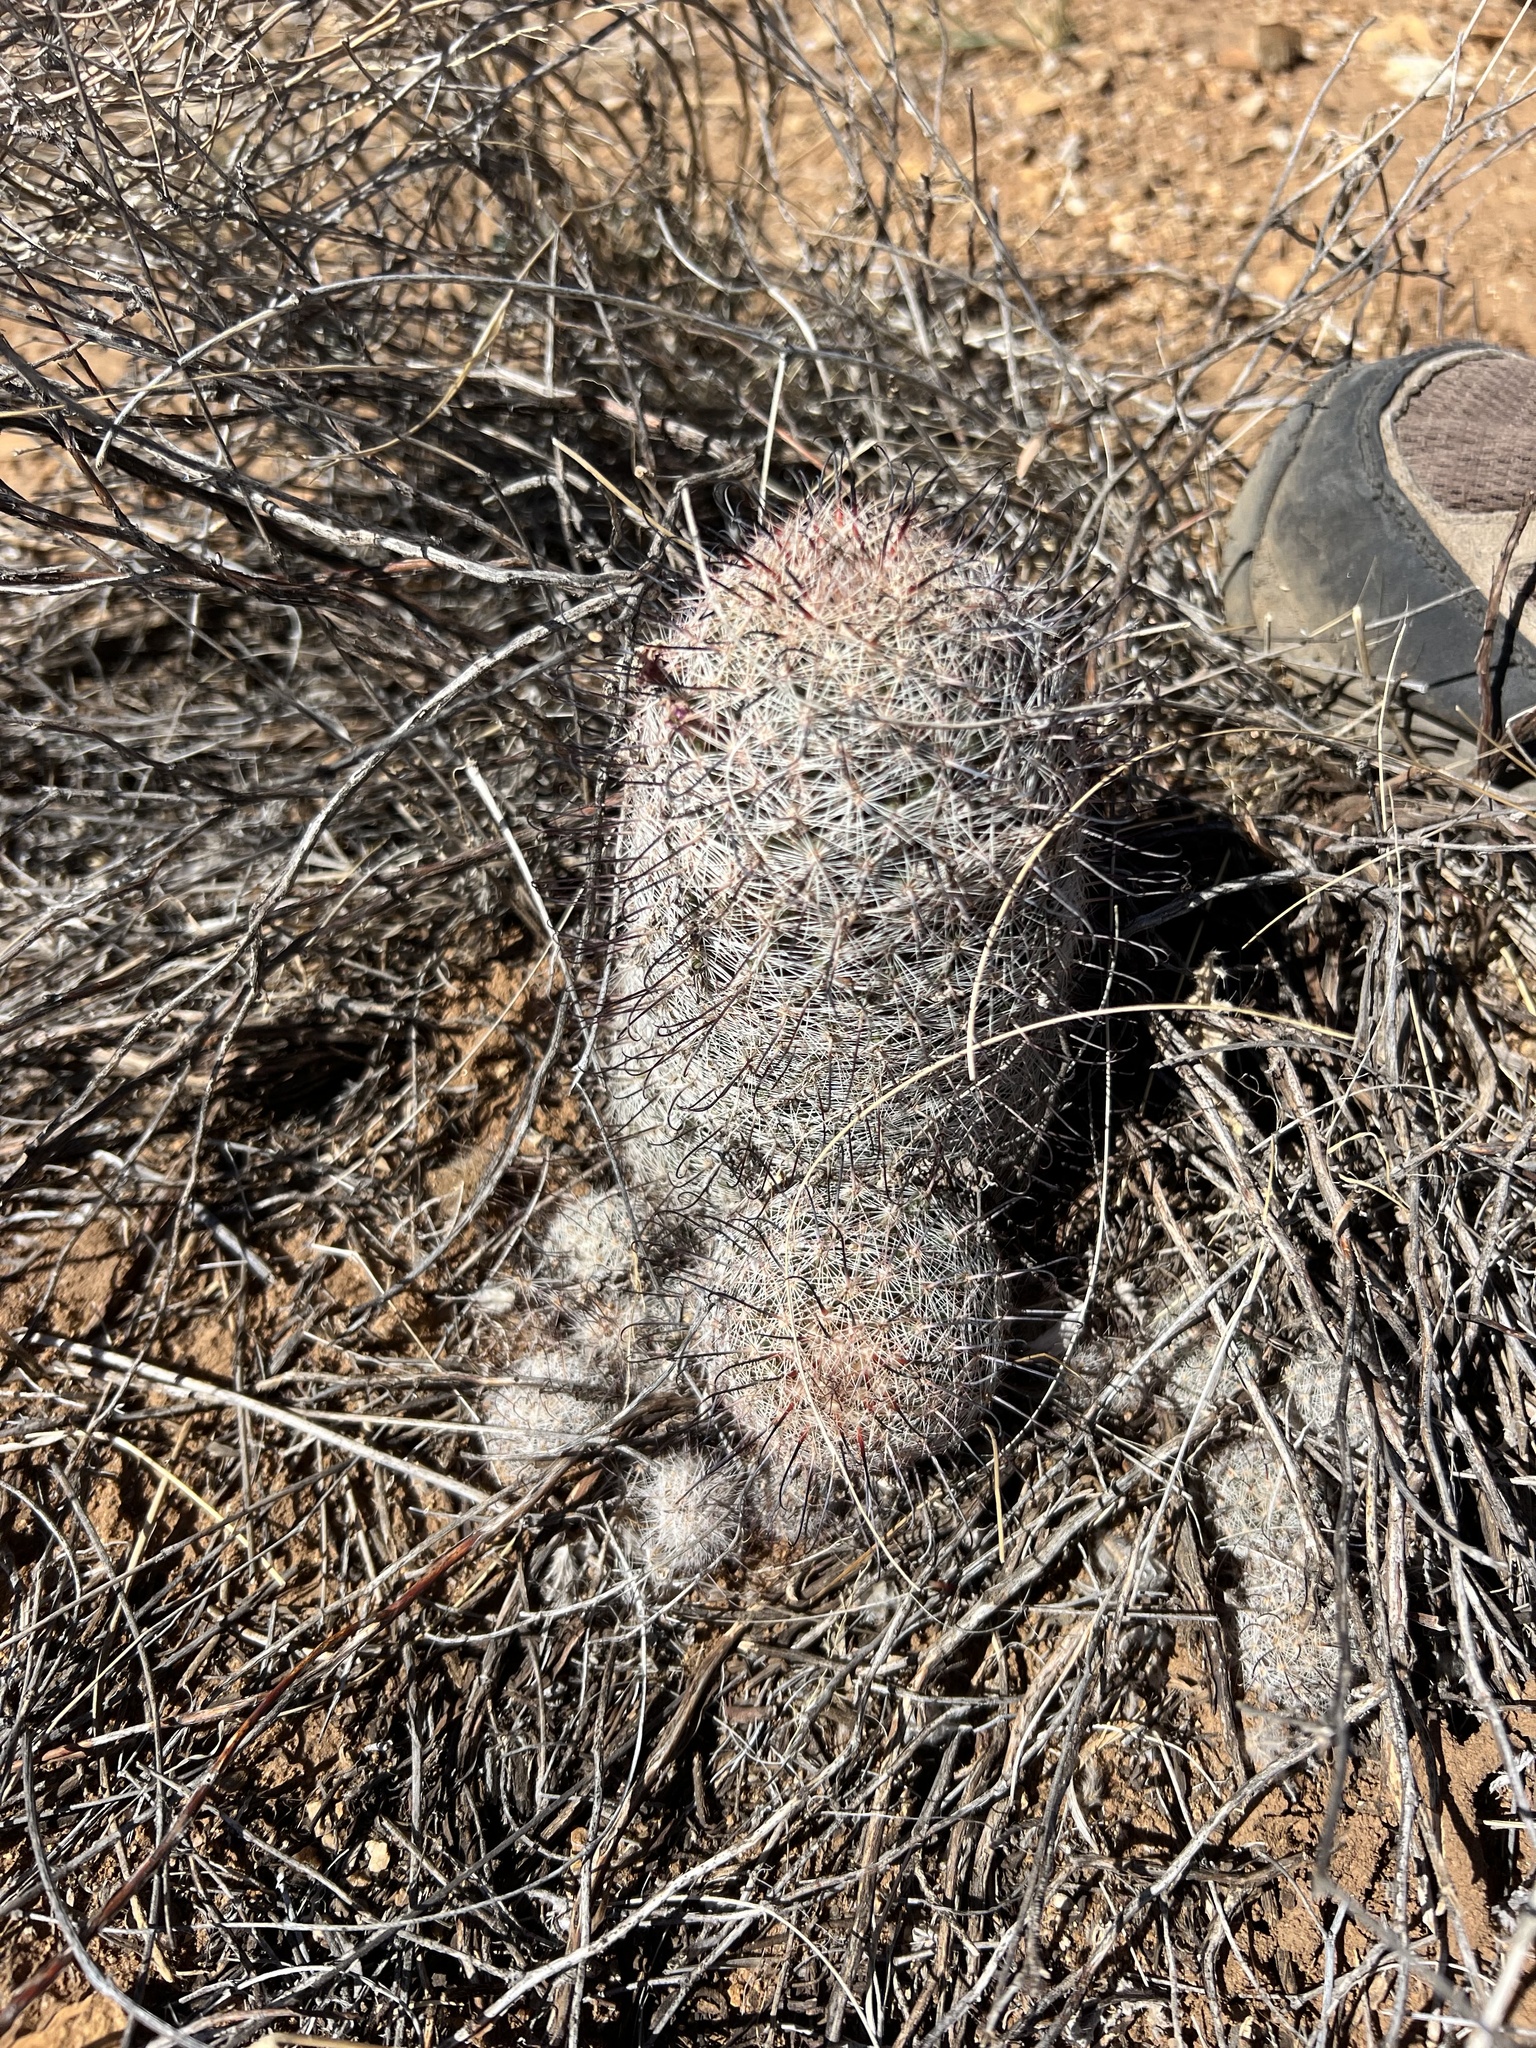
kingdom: Plantae
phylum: Tracheophyta
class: Magnoliopsida
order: Caryophyllales
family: Cactaceae
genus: Cochemiea
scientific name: Cochemiea grahamii
